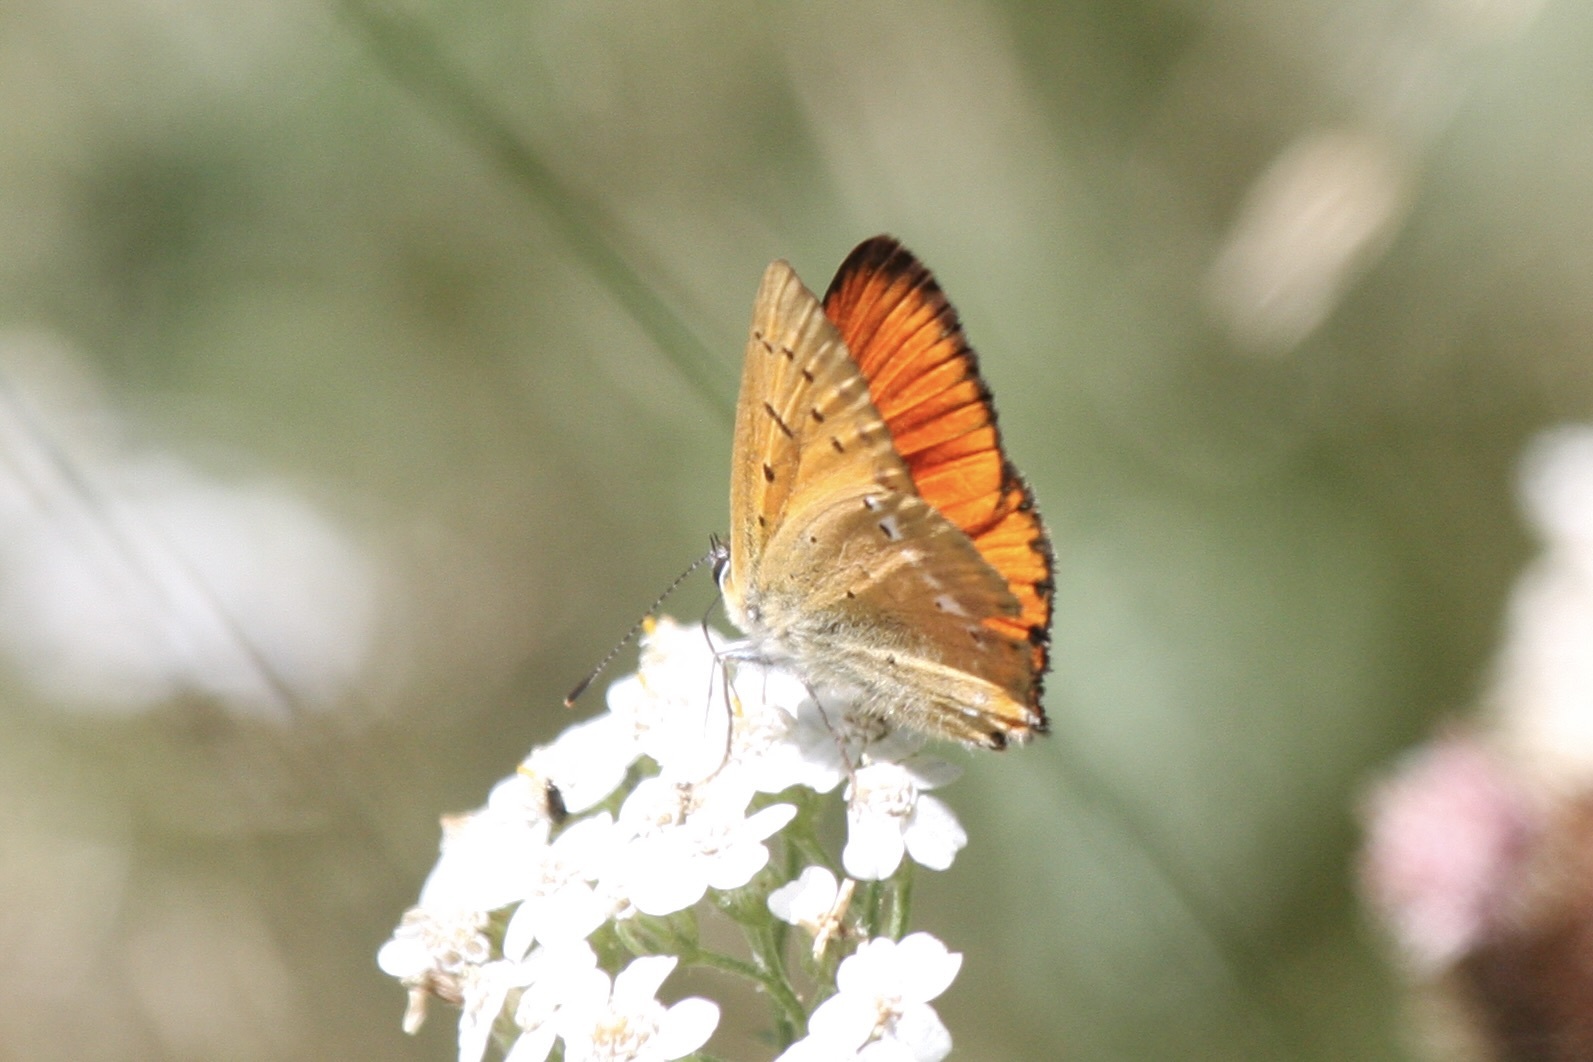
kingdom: Animalia
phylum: Arthropoda
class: Insecta
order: Lepidoptera
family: Lycaenidae
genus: Lycaena
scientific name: Lycaena virgaureae
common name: Scarce copper
